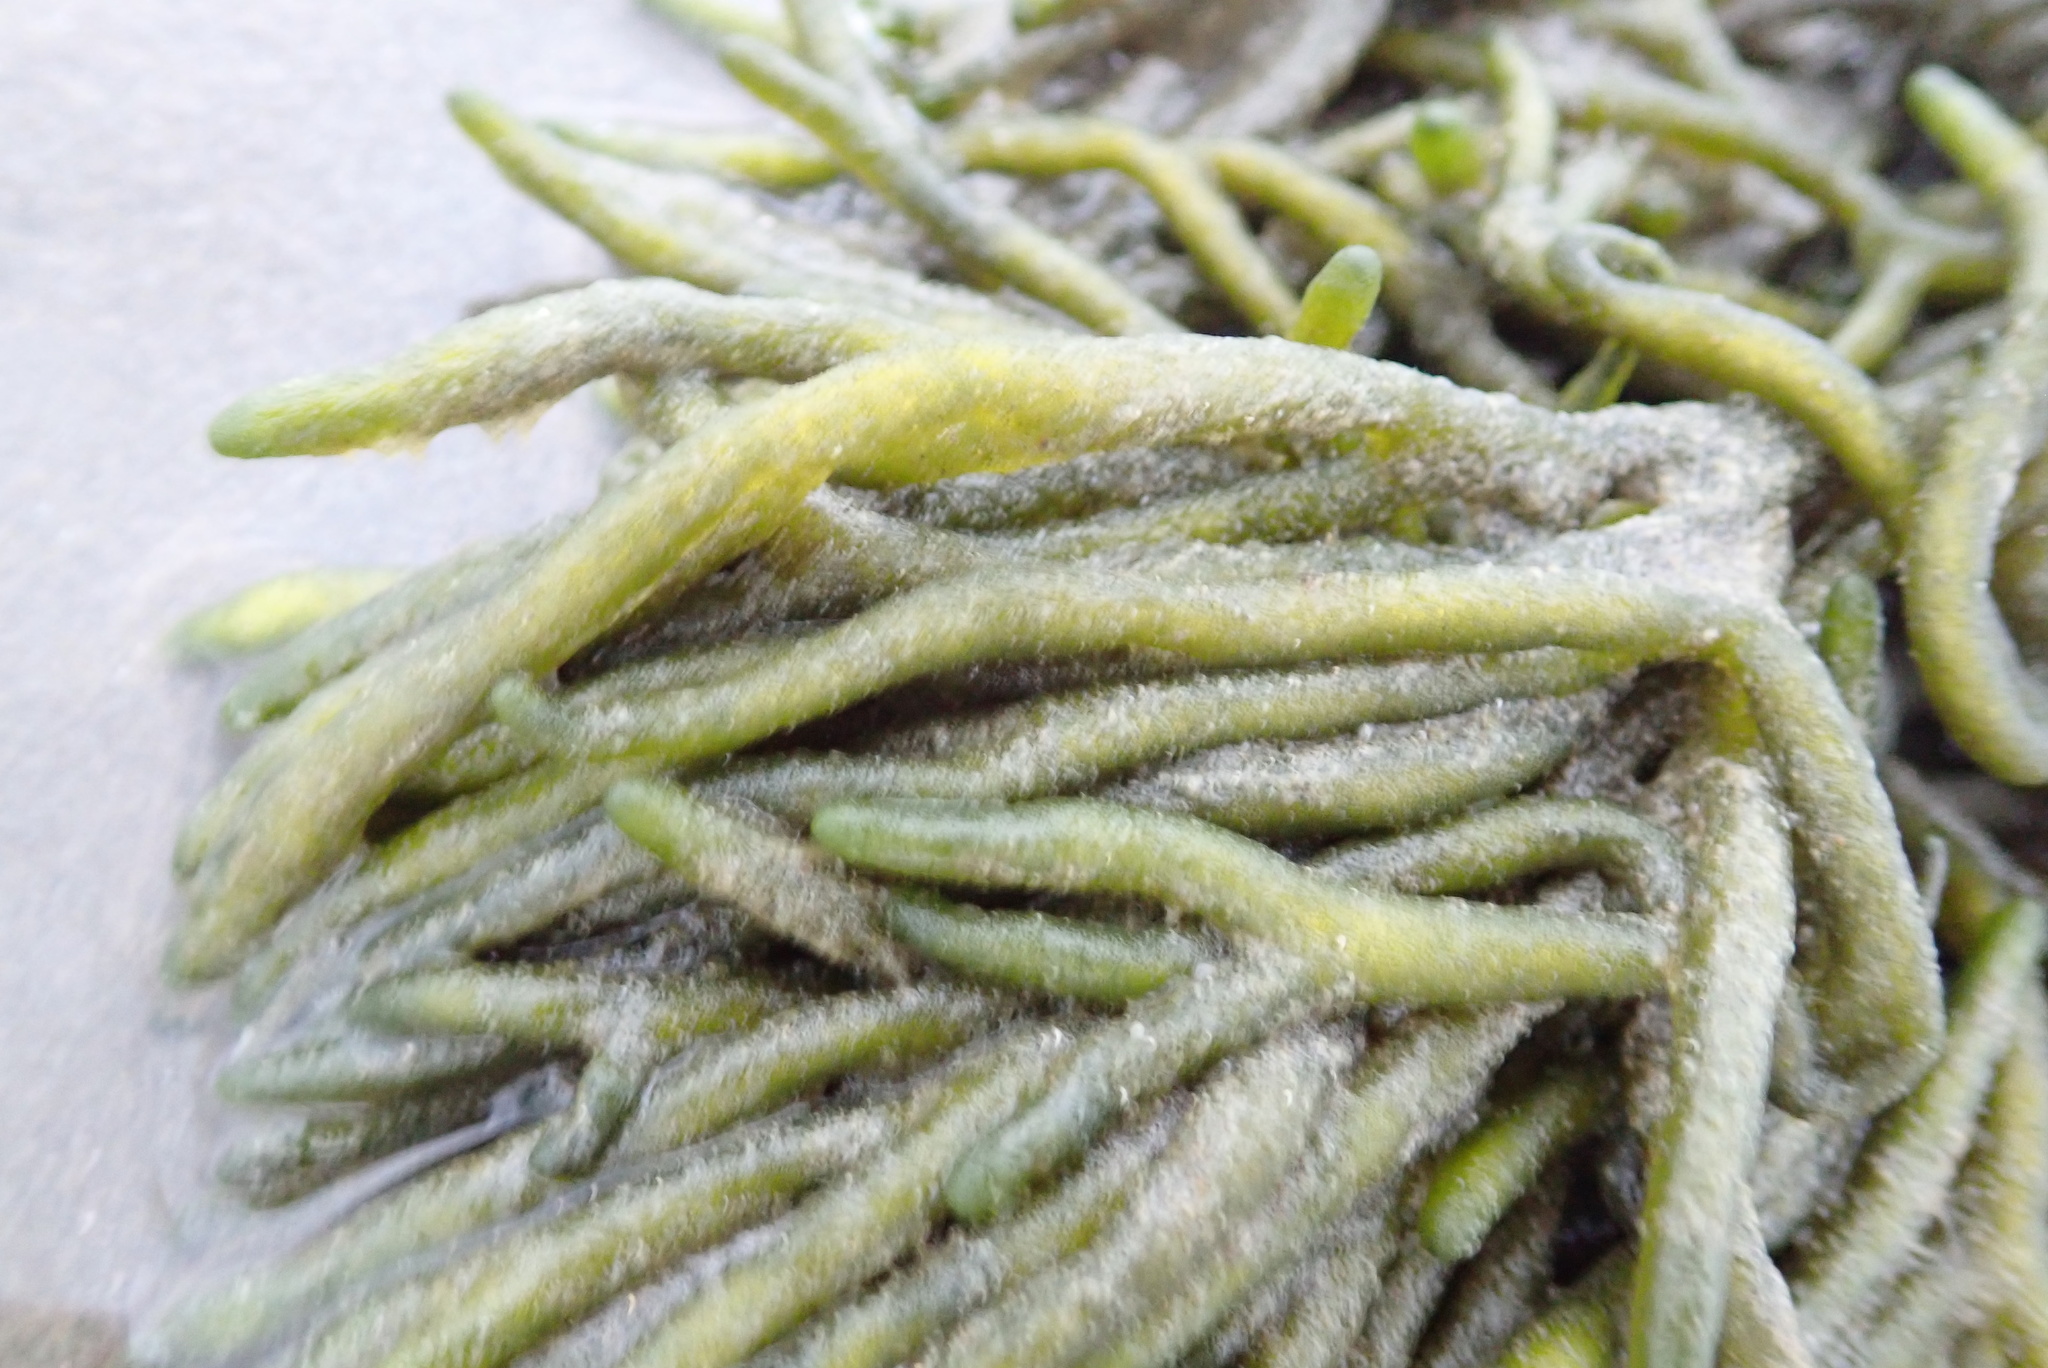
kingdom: Plantae
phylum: Chlorophyta
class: Ulvophyceae
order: Bryopsidales
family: Codiaceae
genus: Codium
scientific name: Codium fragile
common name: Dead man's fingers
